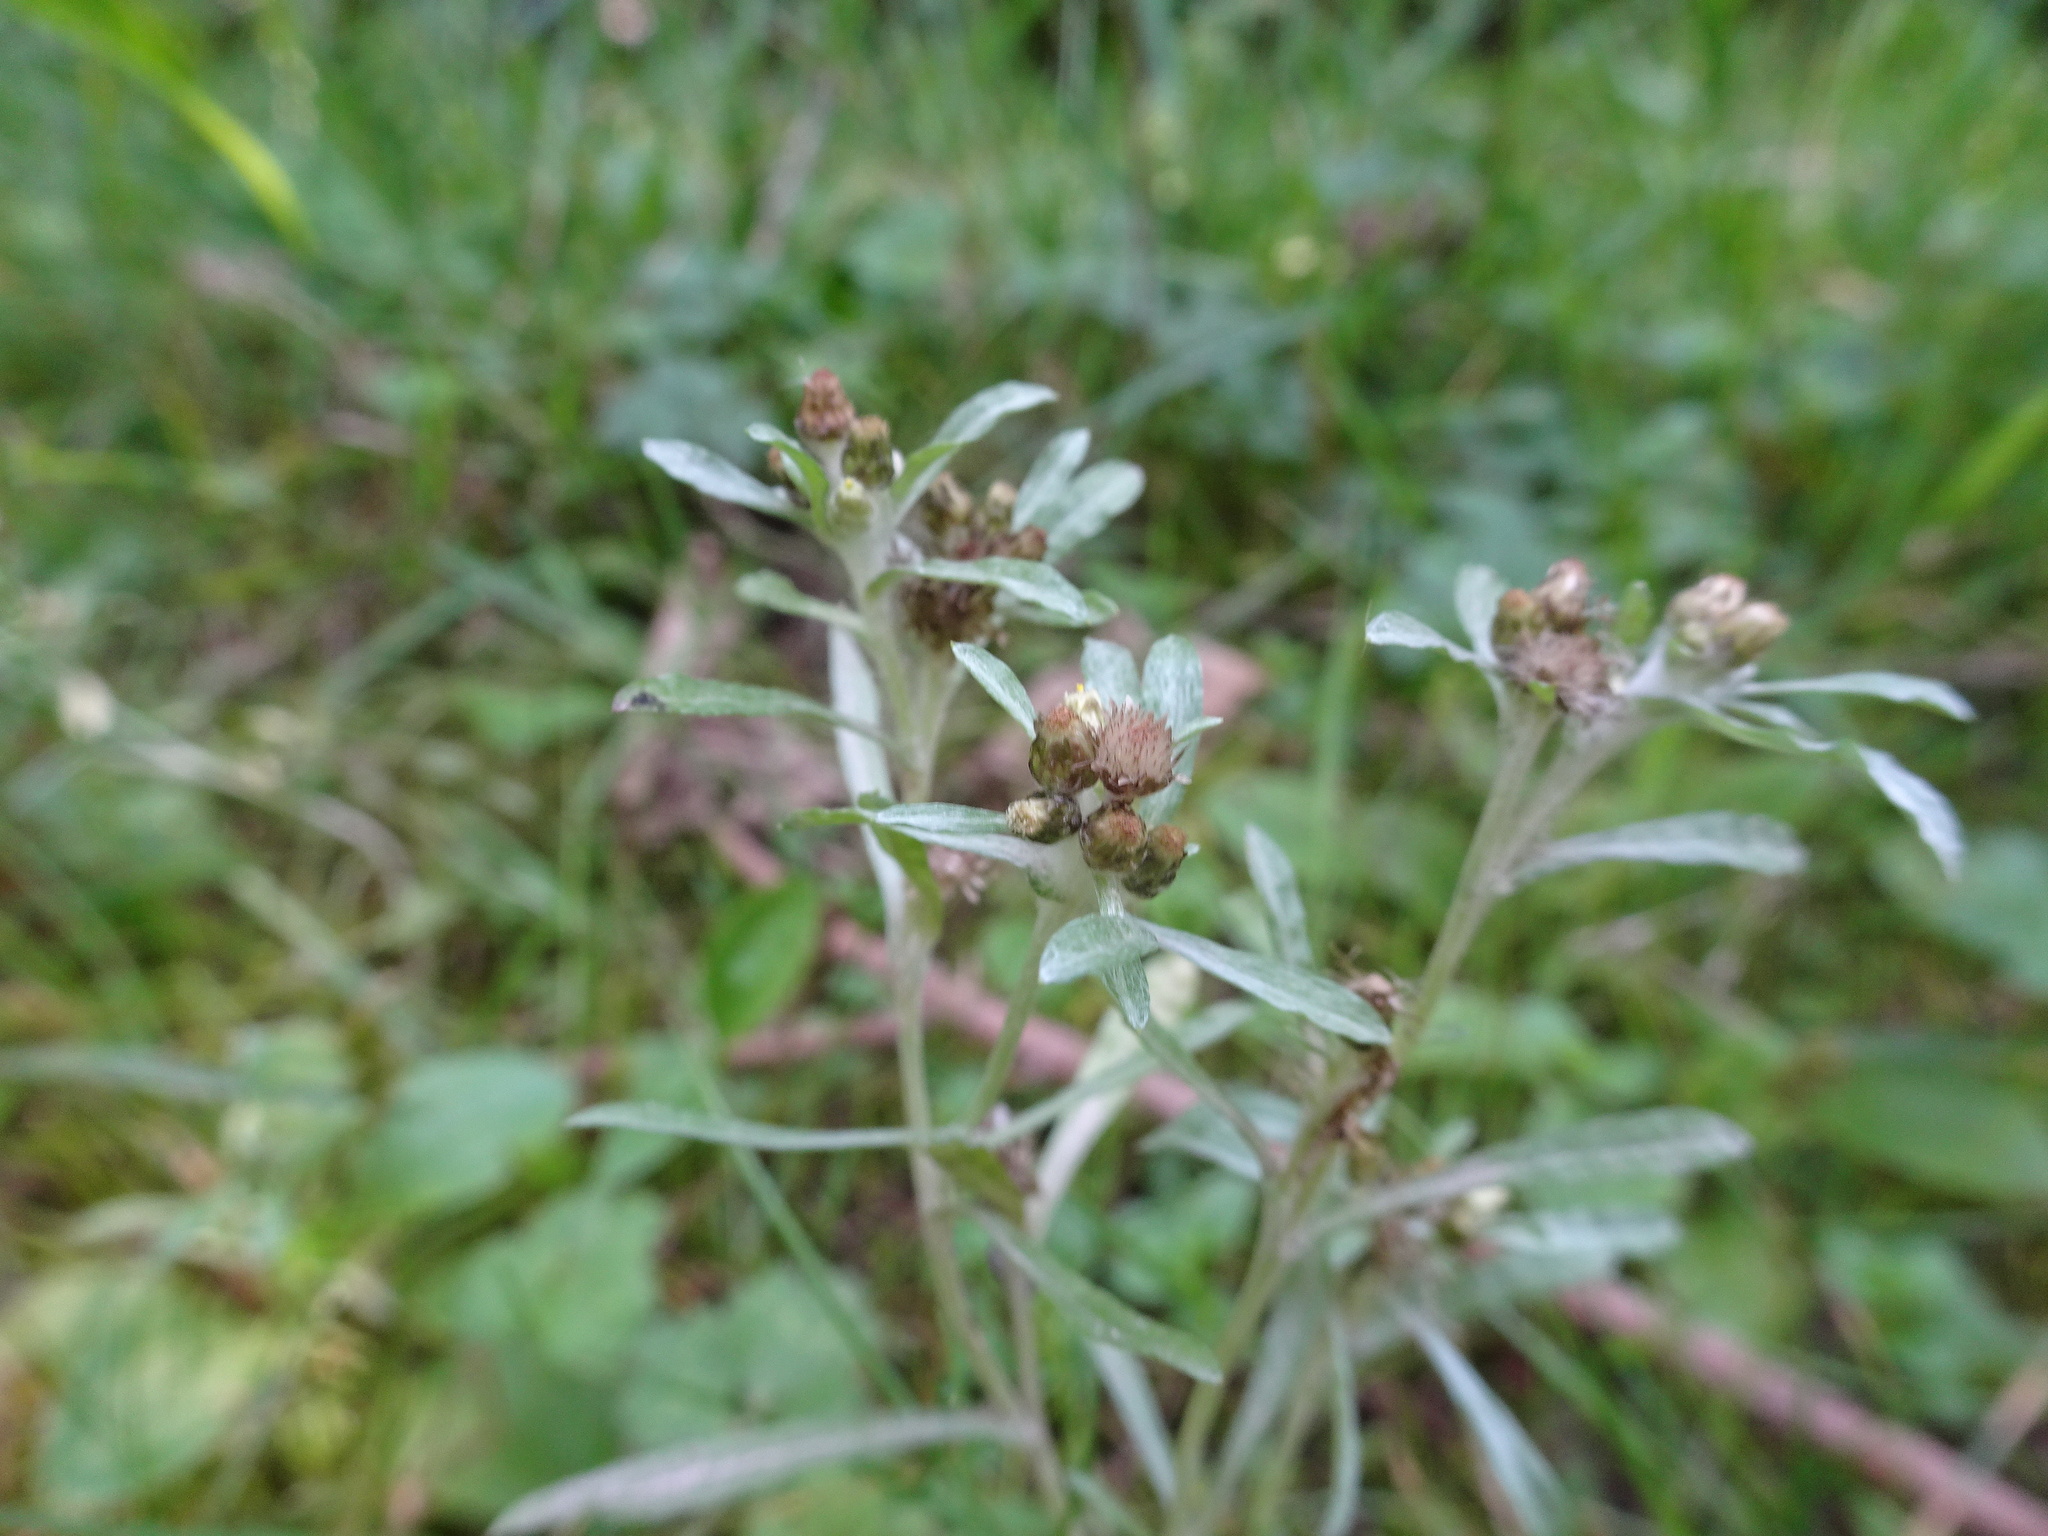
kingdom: Plantae
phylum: Tracheophyta
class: Magnoliopsida
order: Asterales
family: Asteraceae
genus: Gnaphalium
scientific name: Gnaphalium uliginosum
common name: Marsh cudweed
